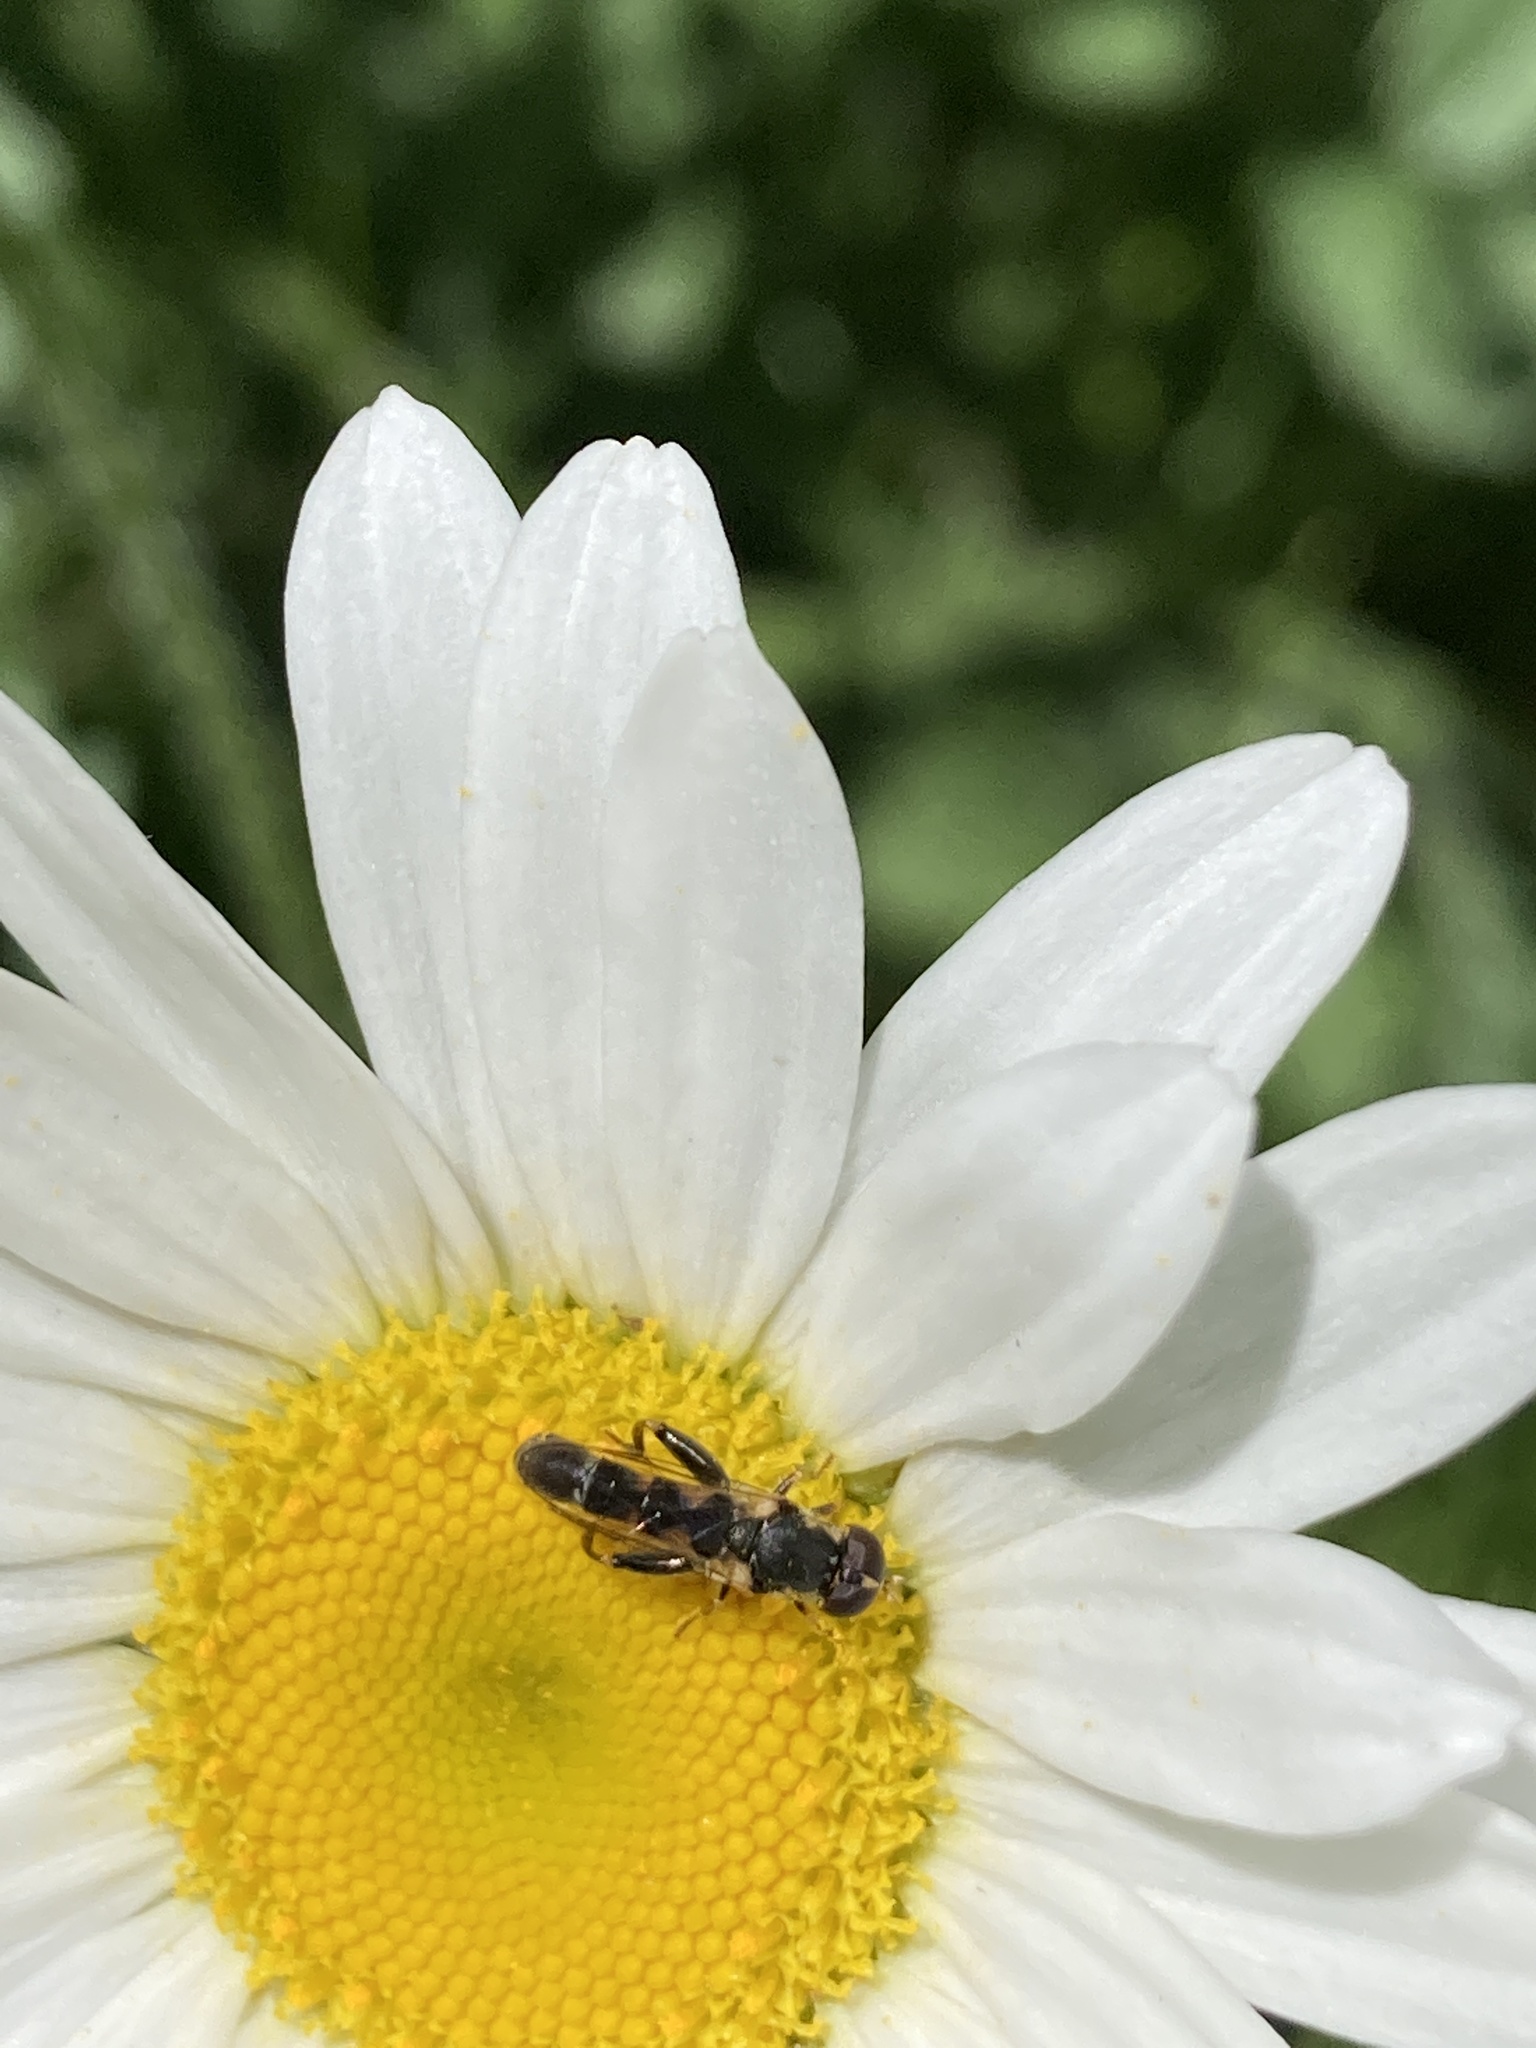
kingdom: Animalia
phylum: Arthropoda
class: Insecta
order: Diptera
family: Syrphidae
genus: Syritta
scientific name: Syritta pipiens
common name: Hover fly
